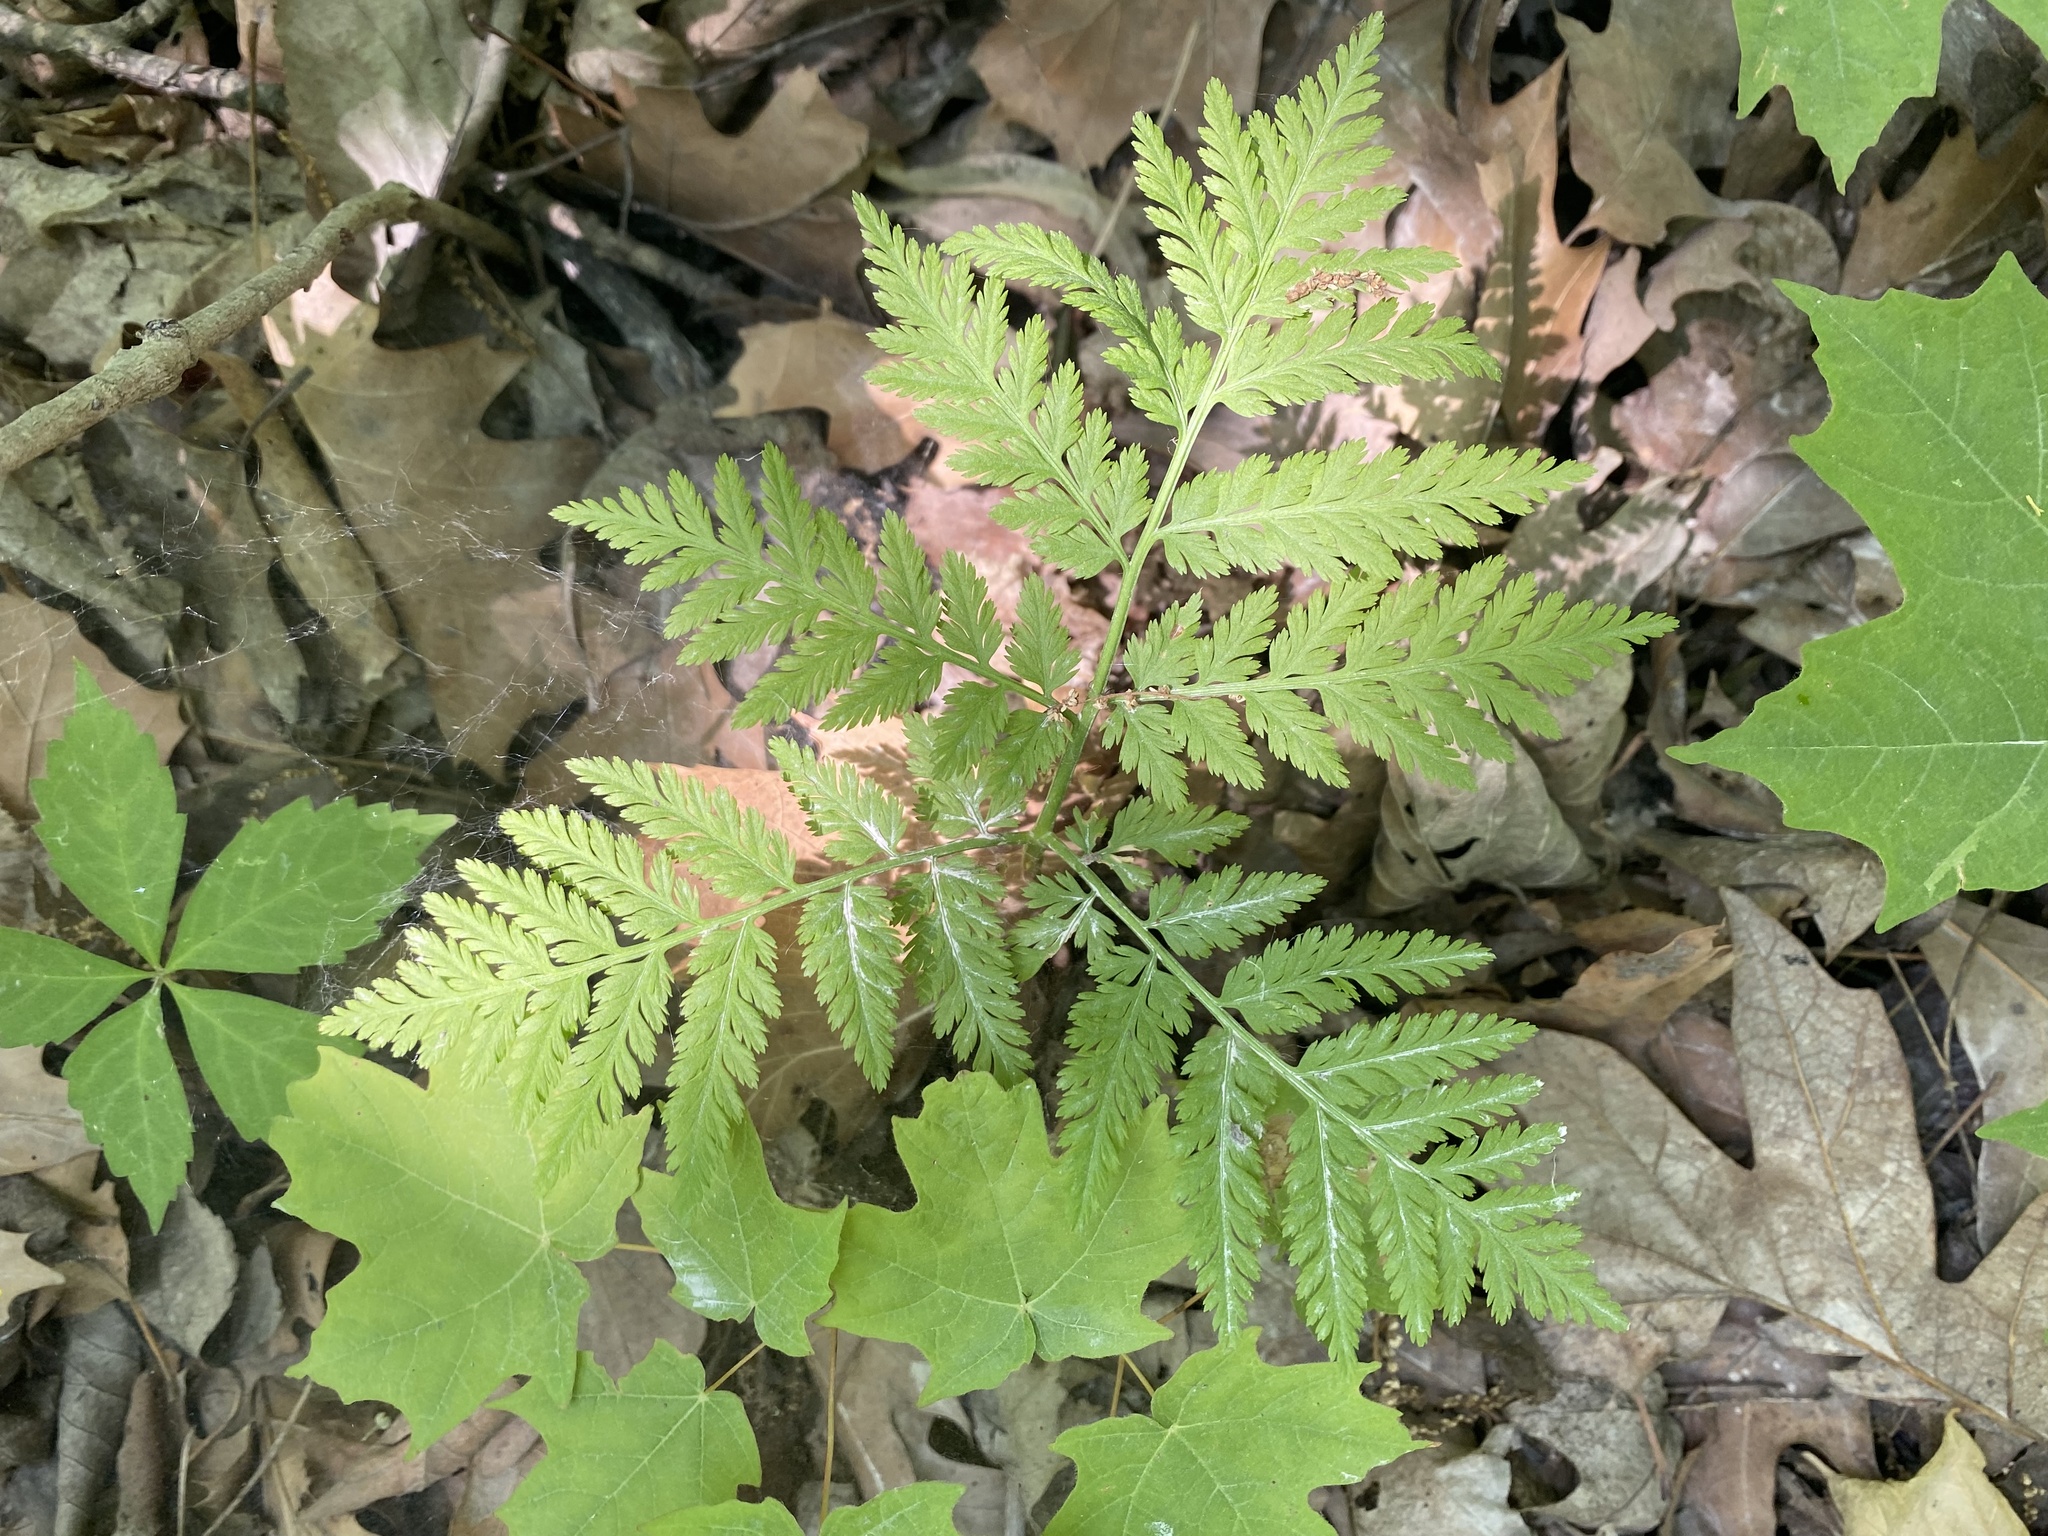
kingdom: Plantae
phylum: Tracheophyta
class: Polypodiopsida
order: Ophioglossales
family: Ophioglossaceae
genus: Botrypus
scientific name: Botrypus virginianus
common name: Common grapefern
